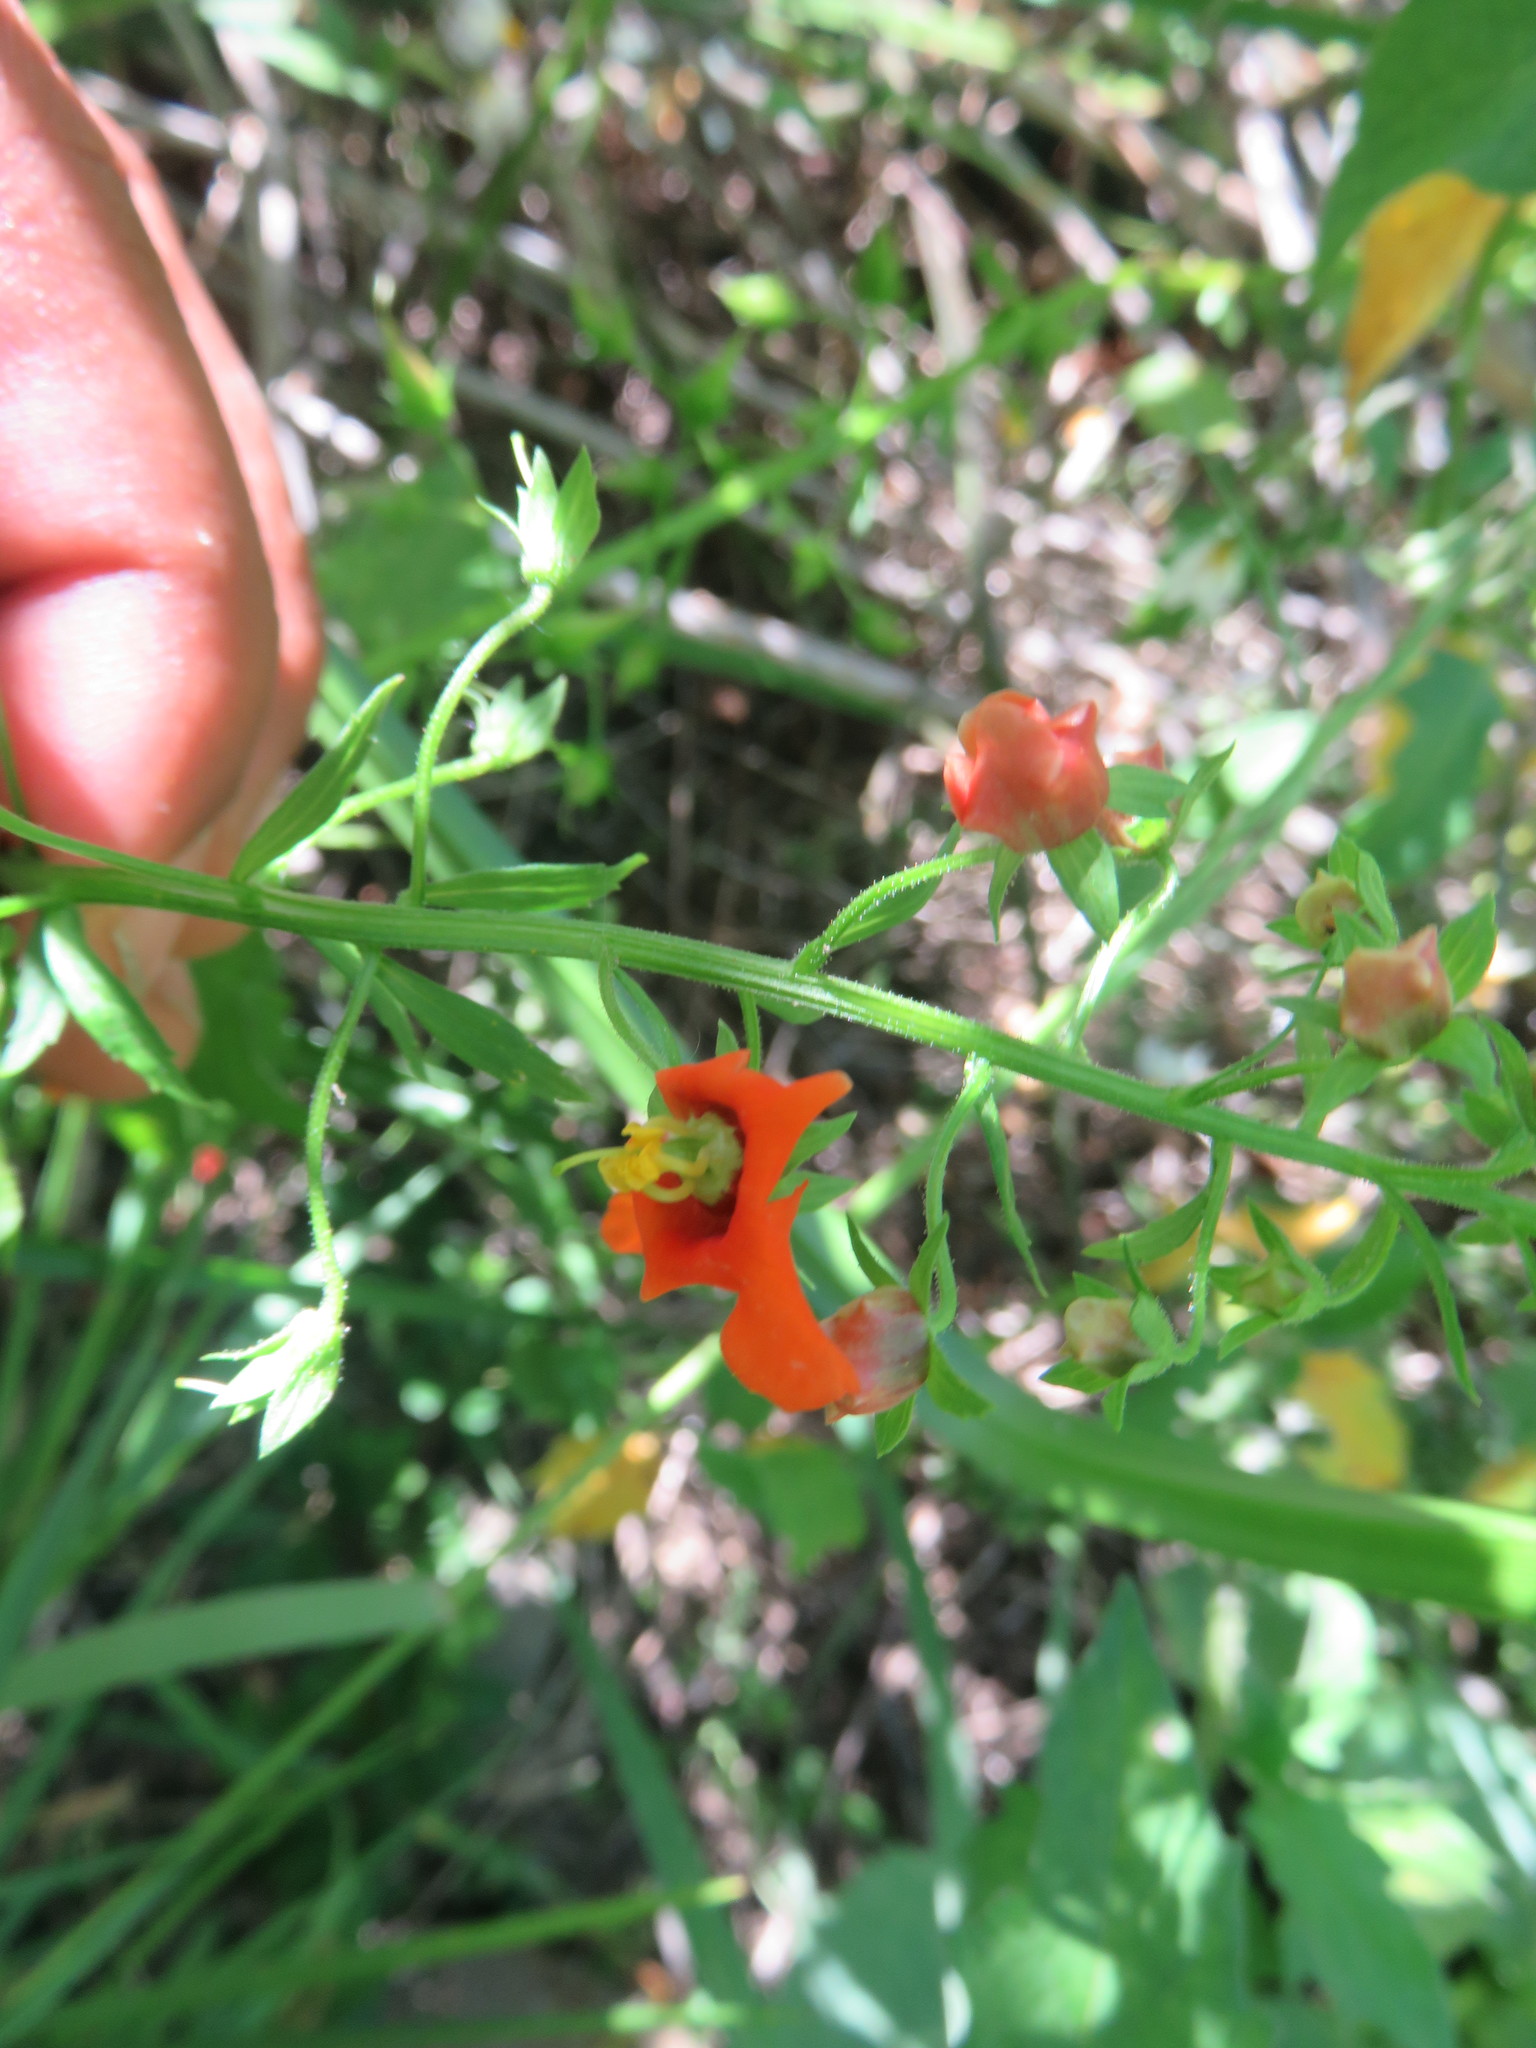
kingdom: Plantae
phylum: Tracheophyta
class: Magnoliopsida
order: Lamiales
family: Scrophulariaceae
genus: Alonsoa
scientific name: Alonsoa meridionalis
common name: Maskflower
